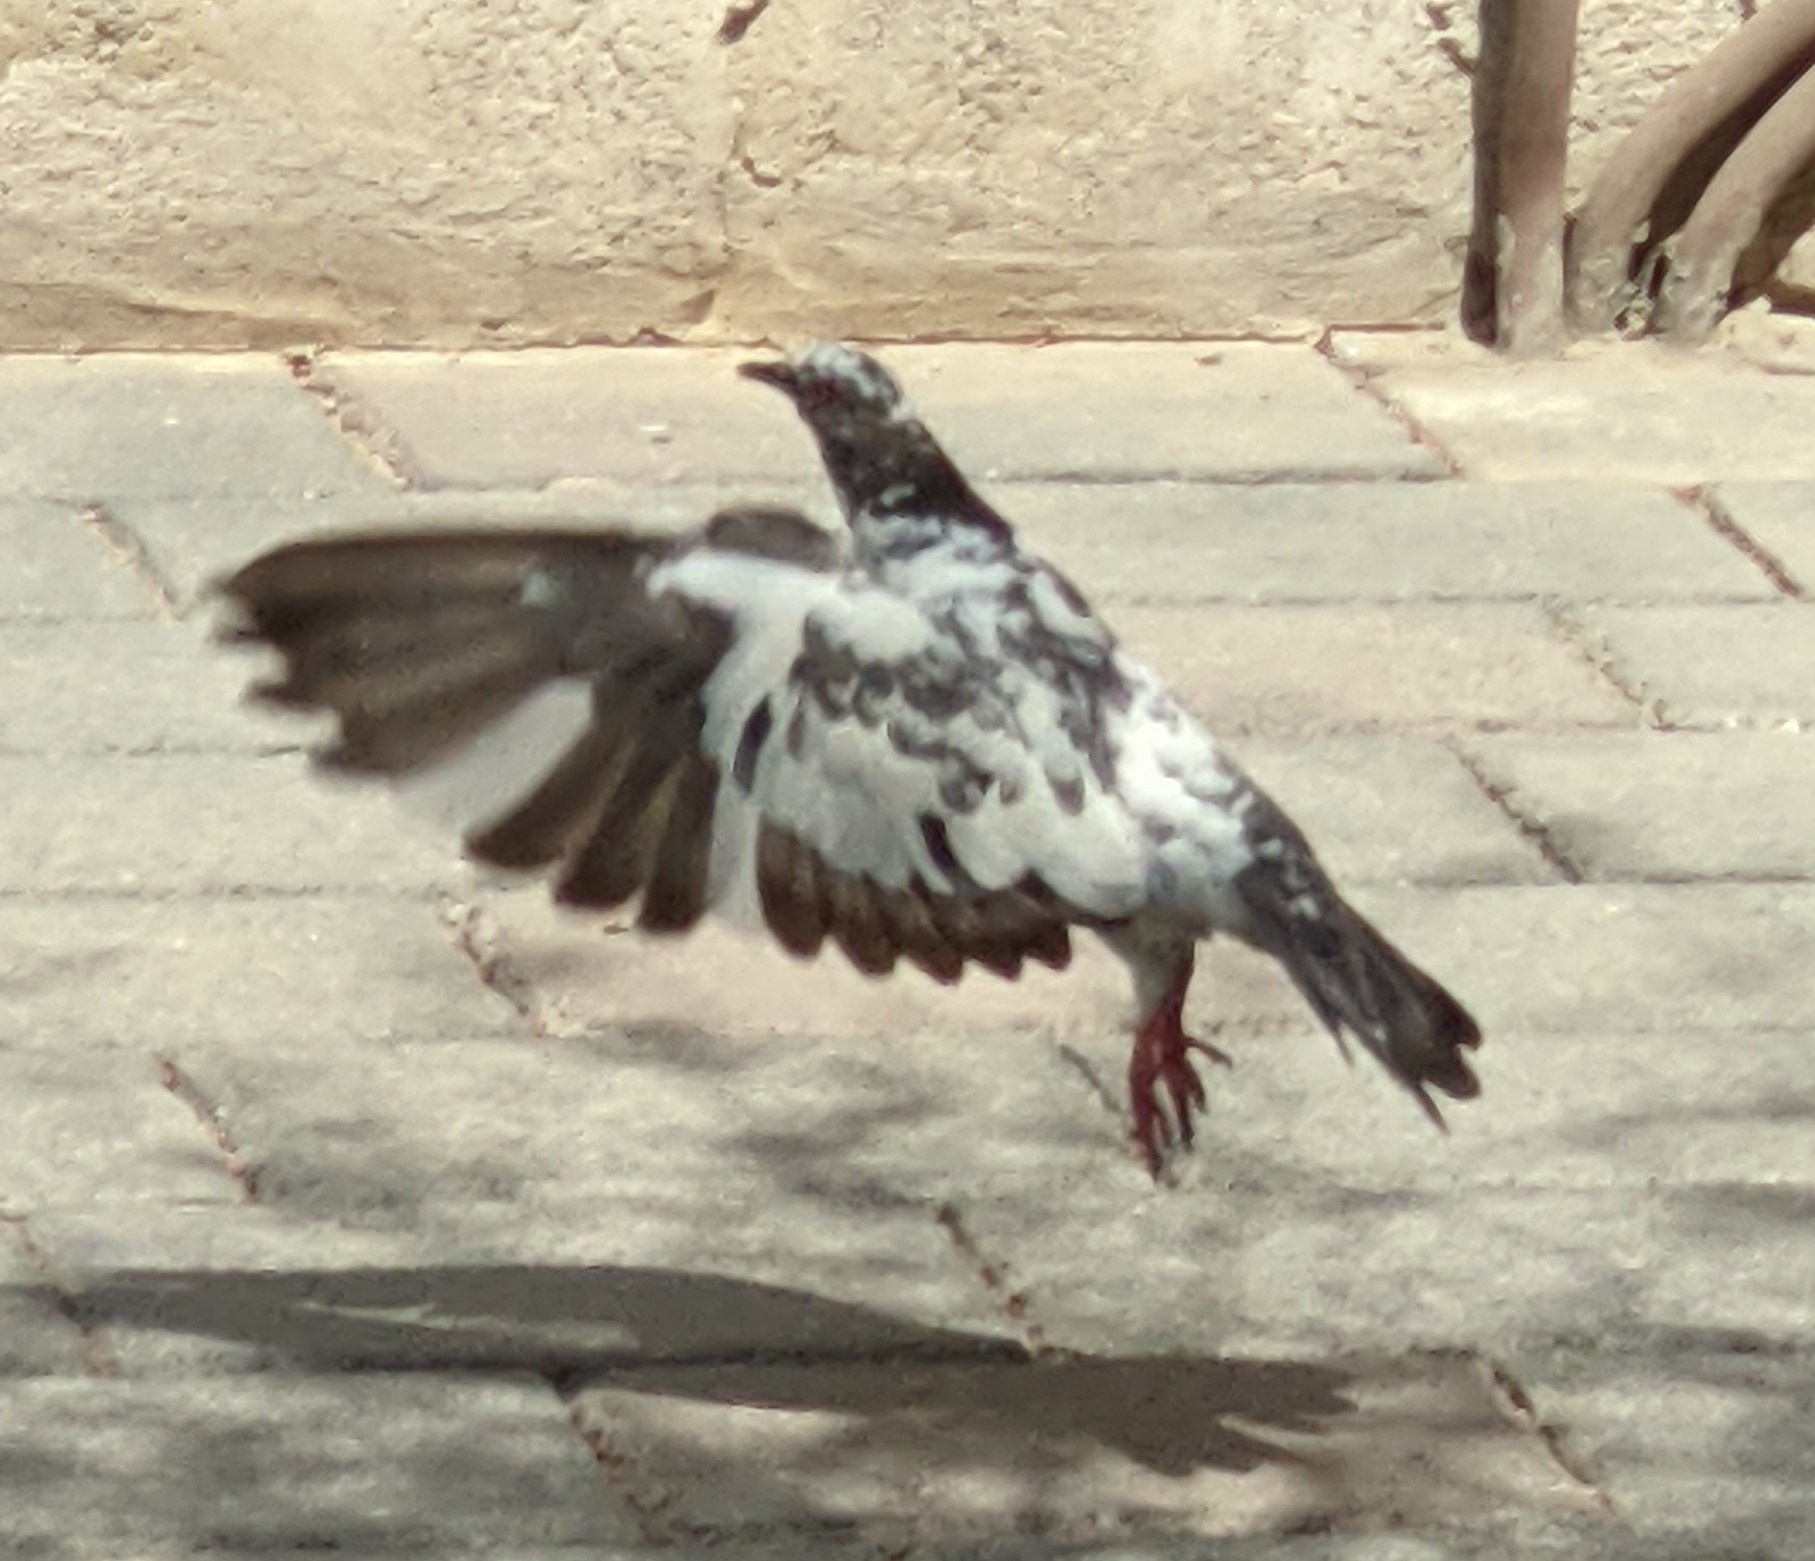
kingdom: Animalia
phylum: Chordata
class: Aves
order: Columbiformes
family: Columbidae
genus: Columba
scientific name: Columba livia
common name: Rock pigeon
